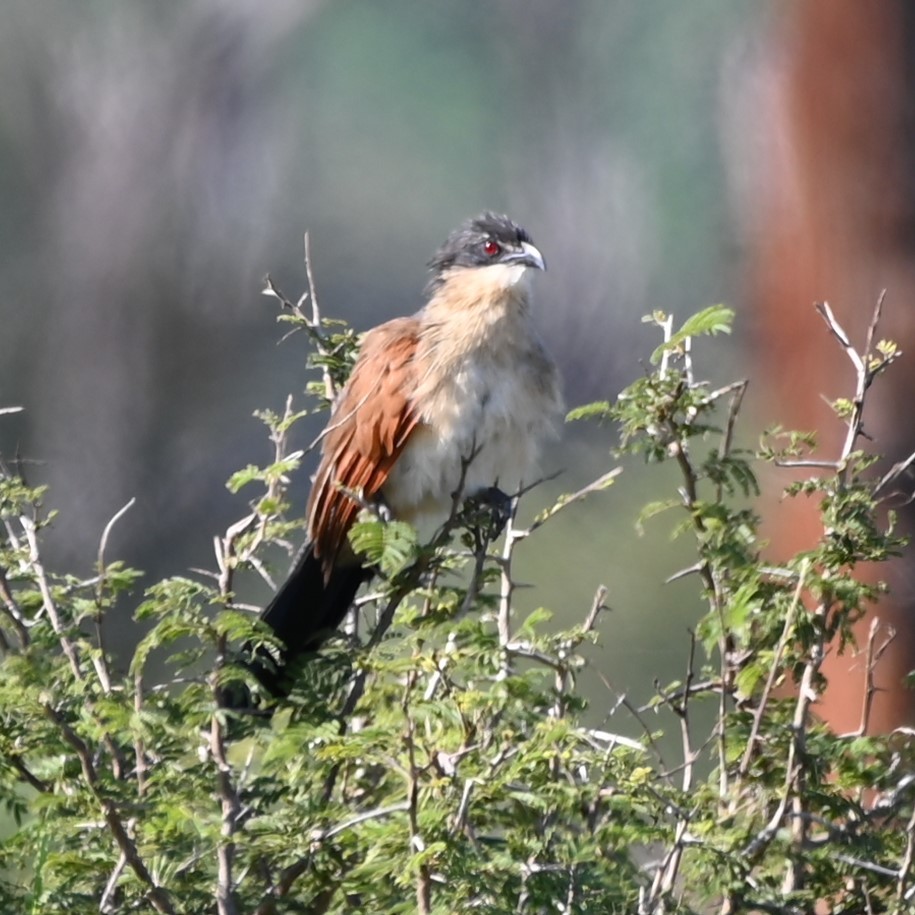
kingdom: Animalia
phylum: Chordata
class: Aves
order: Cuculiformes
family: Cuculidae
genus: Centropus
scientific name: Centropus superciliosus
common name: White-browed coucal
